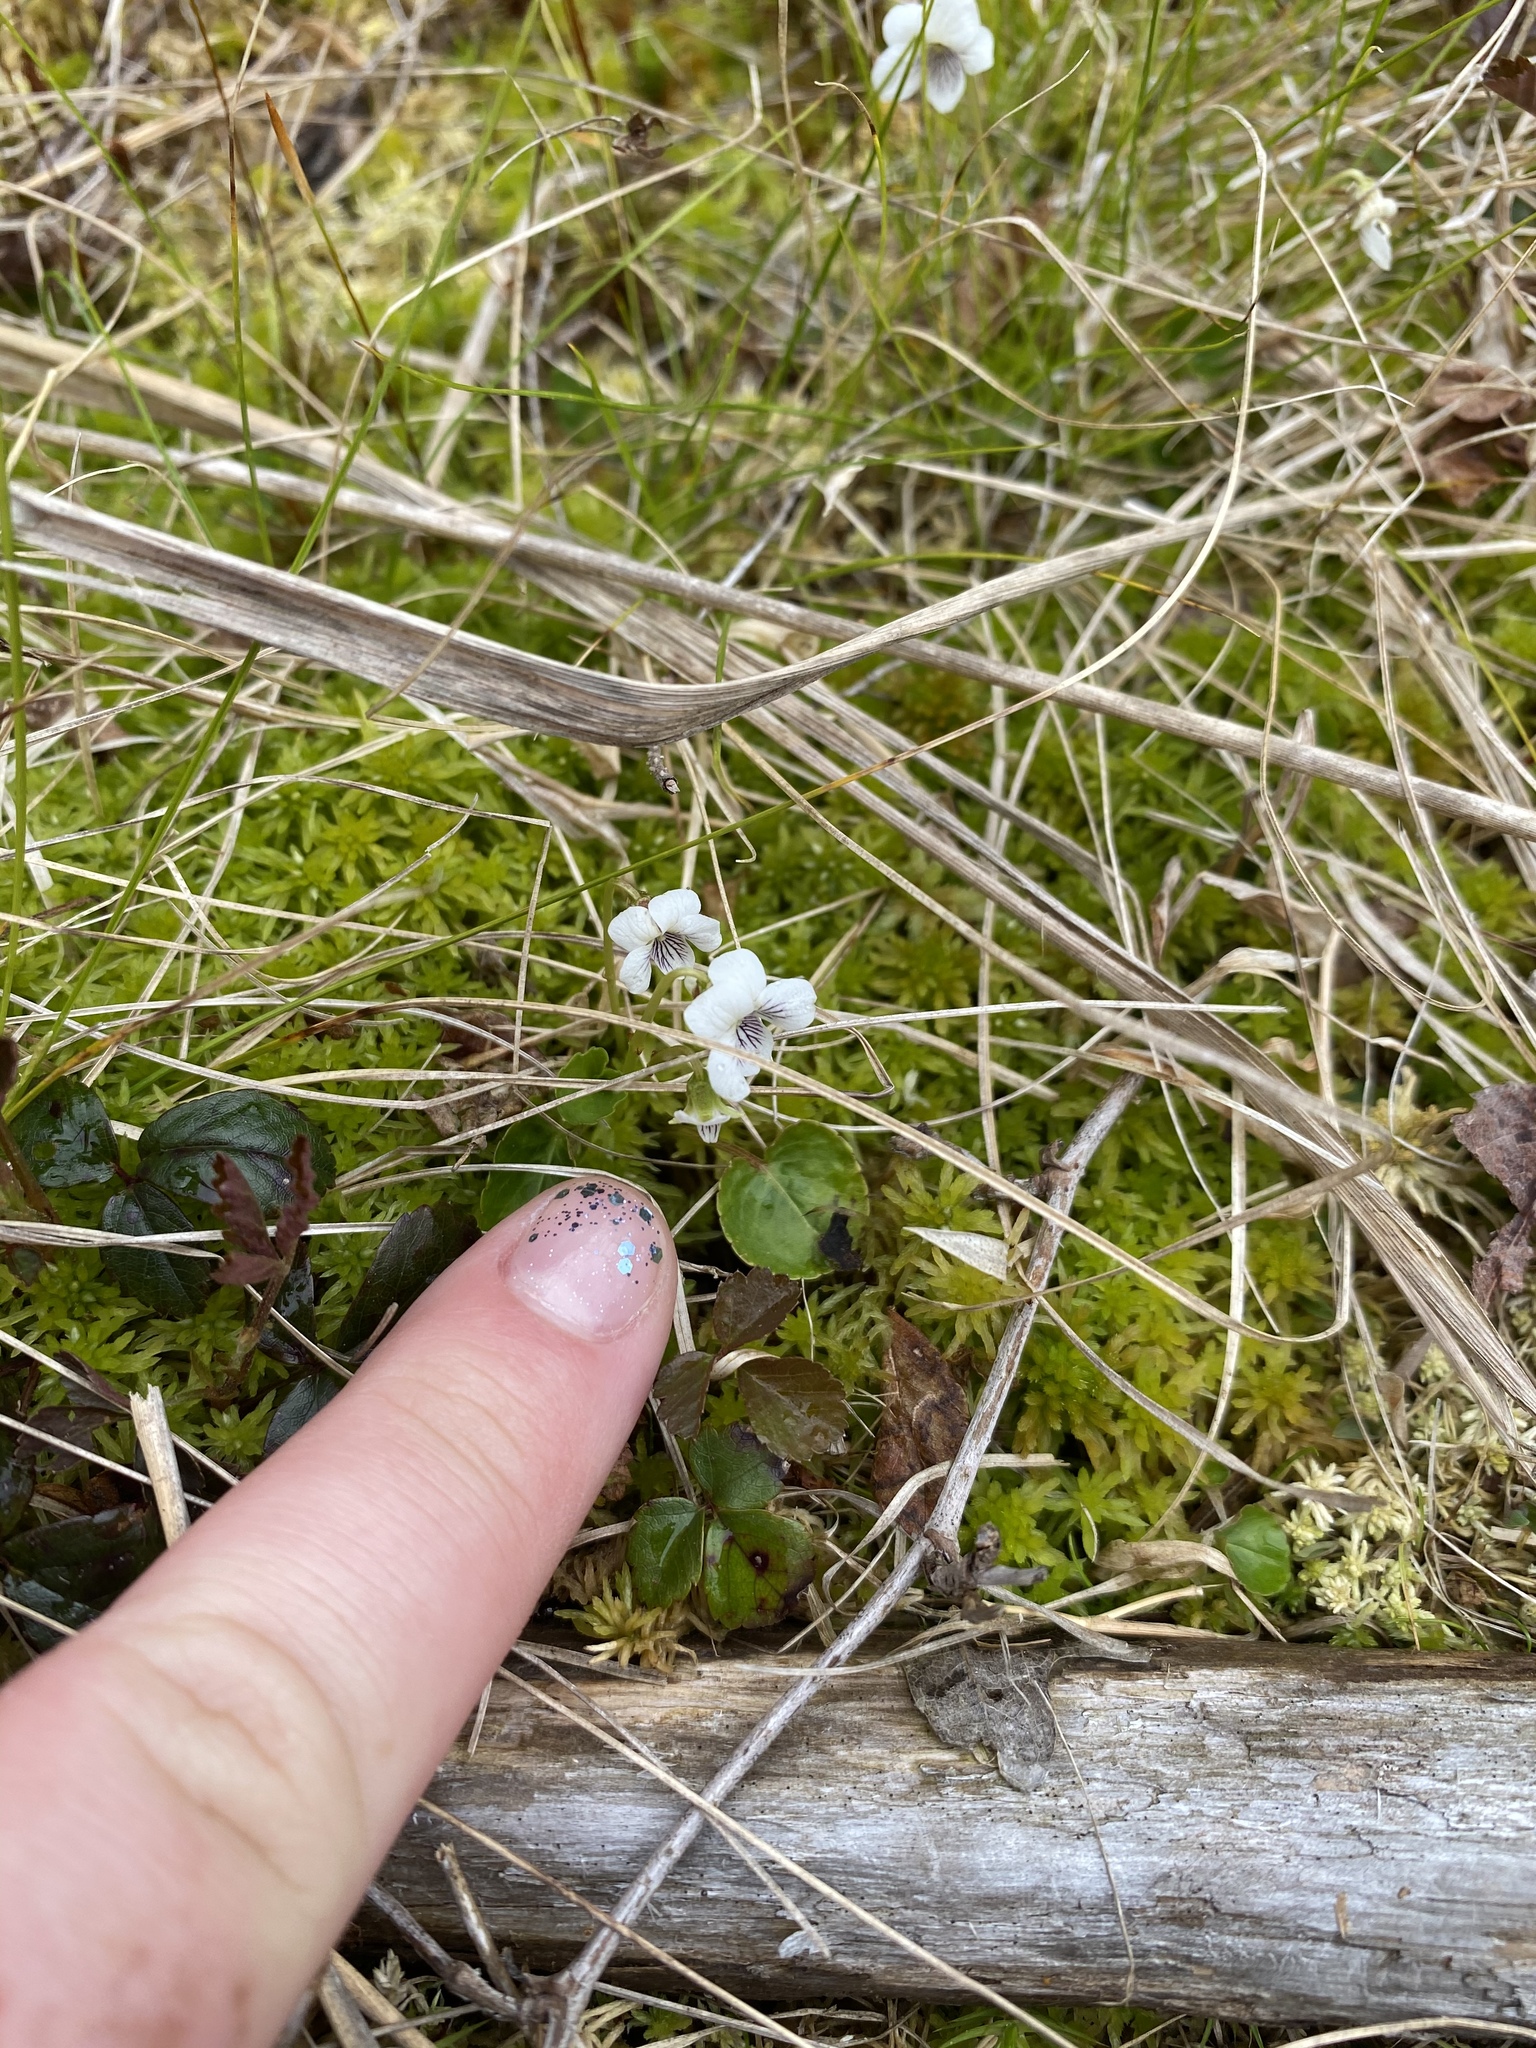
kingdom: Plantae
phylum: Tracheophyta
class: Magnoliopsida
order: Malpighiales
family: Violaceae
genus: Viola
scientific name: Viola minuscula
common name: Northern white violet
